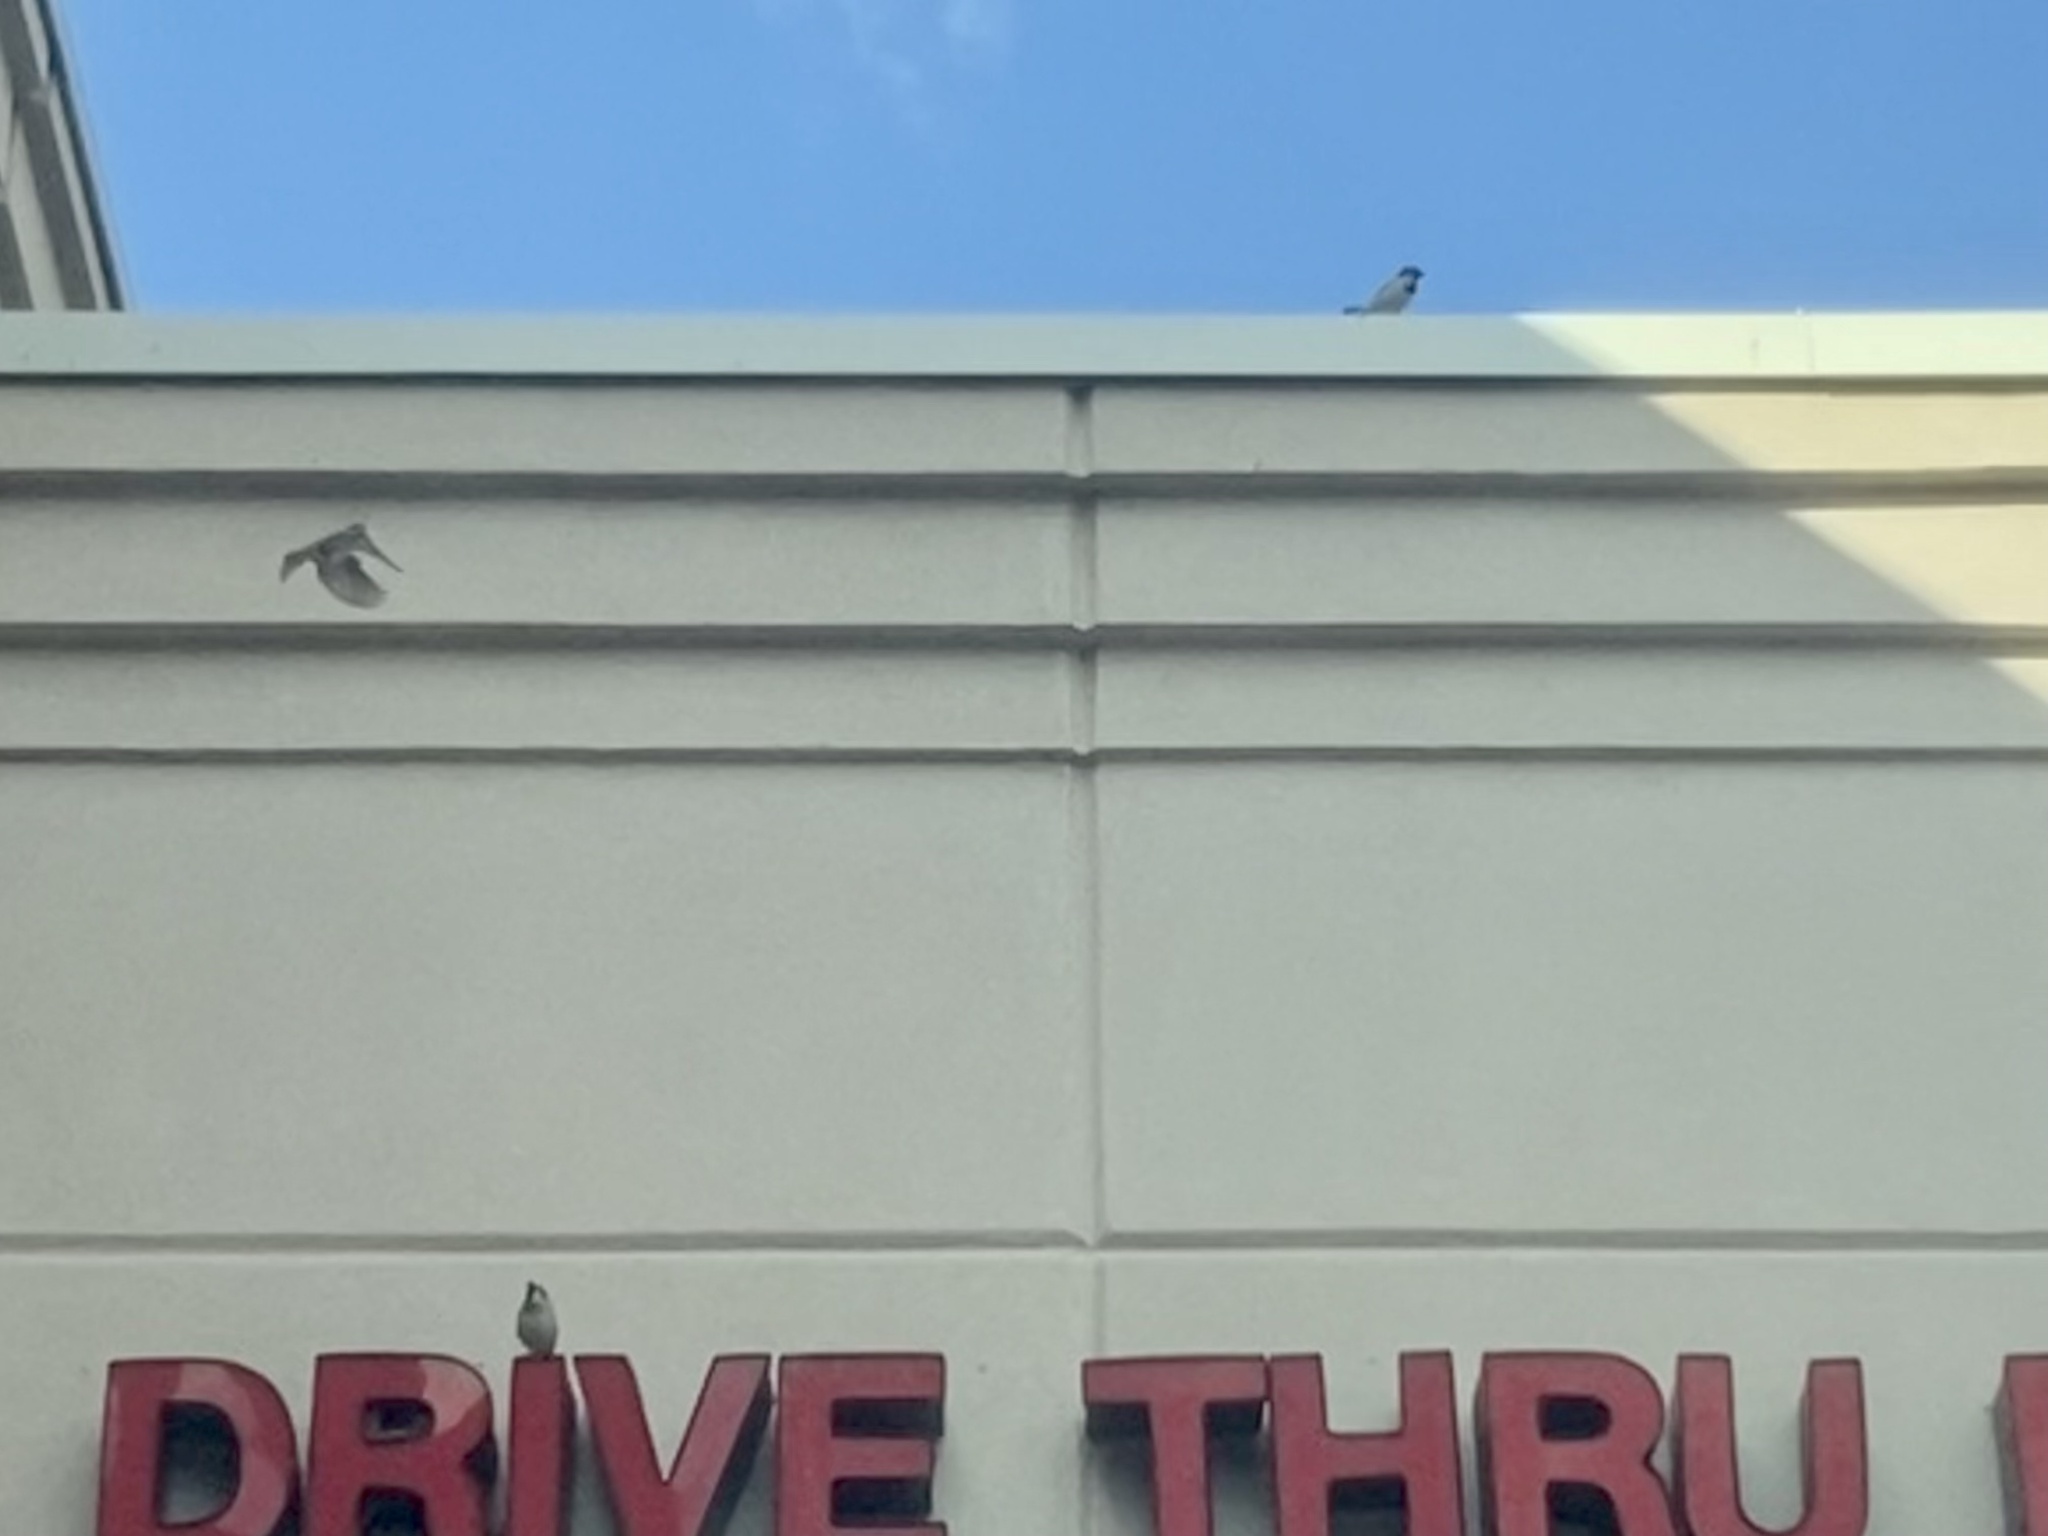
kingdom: Animalia
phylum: Chordata
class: Aves
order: Passeriformes
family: Passeridae
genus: Passer
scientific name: Passer domesticus
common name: House sparrow
